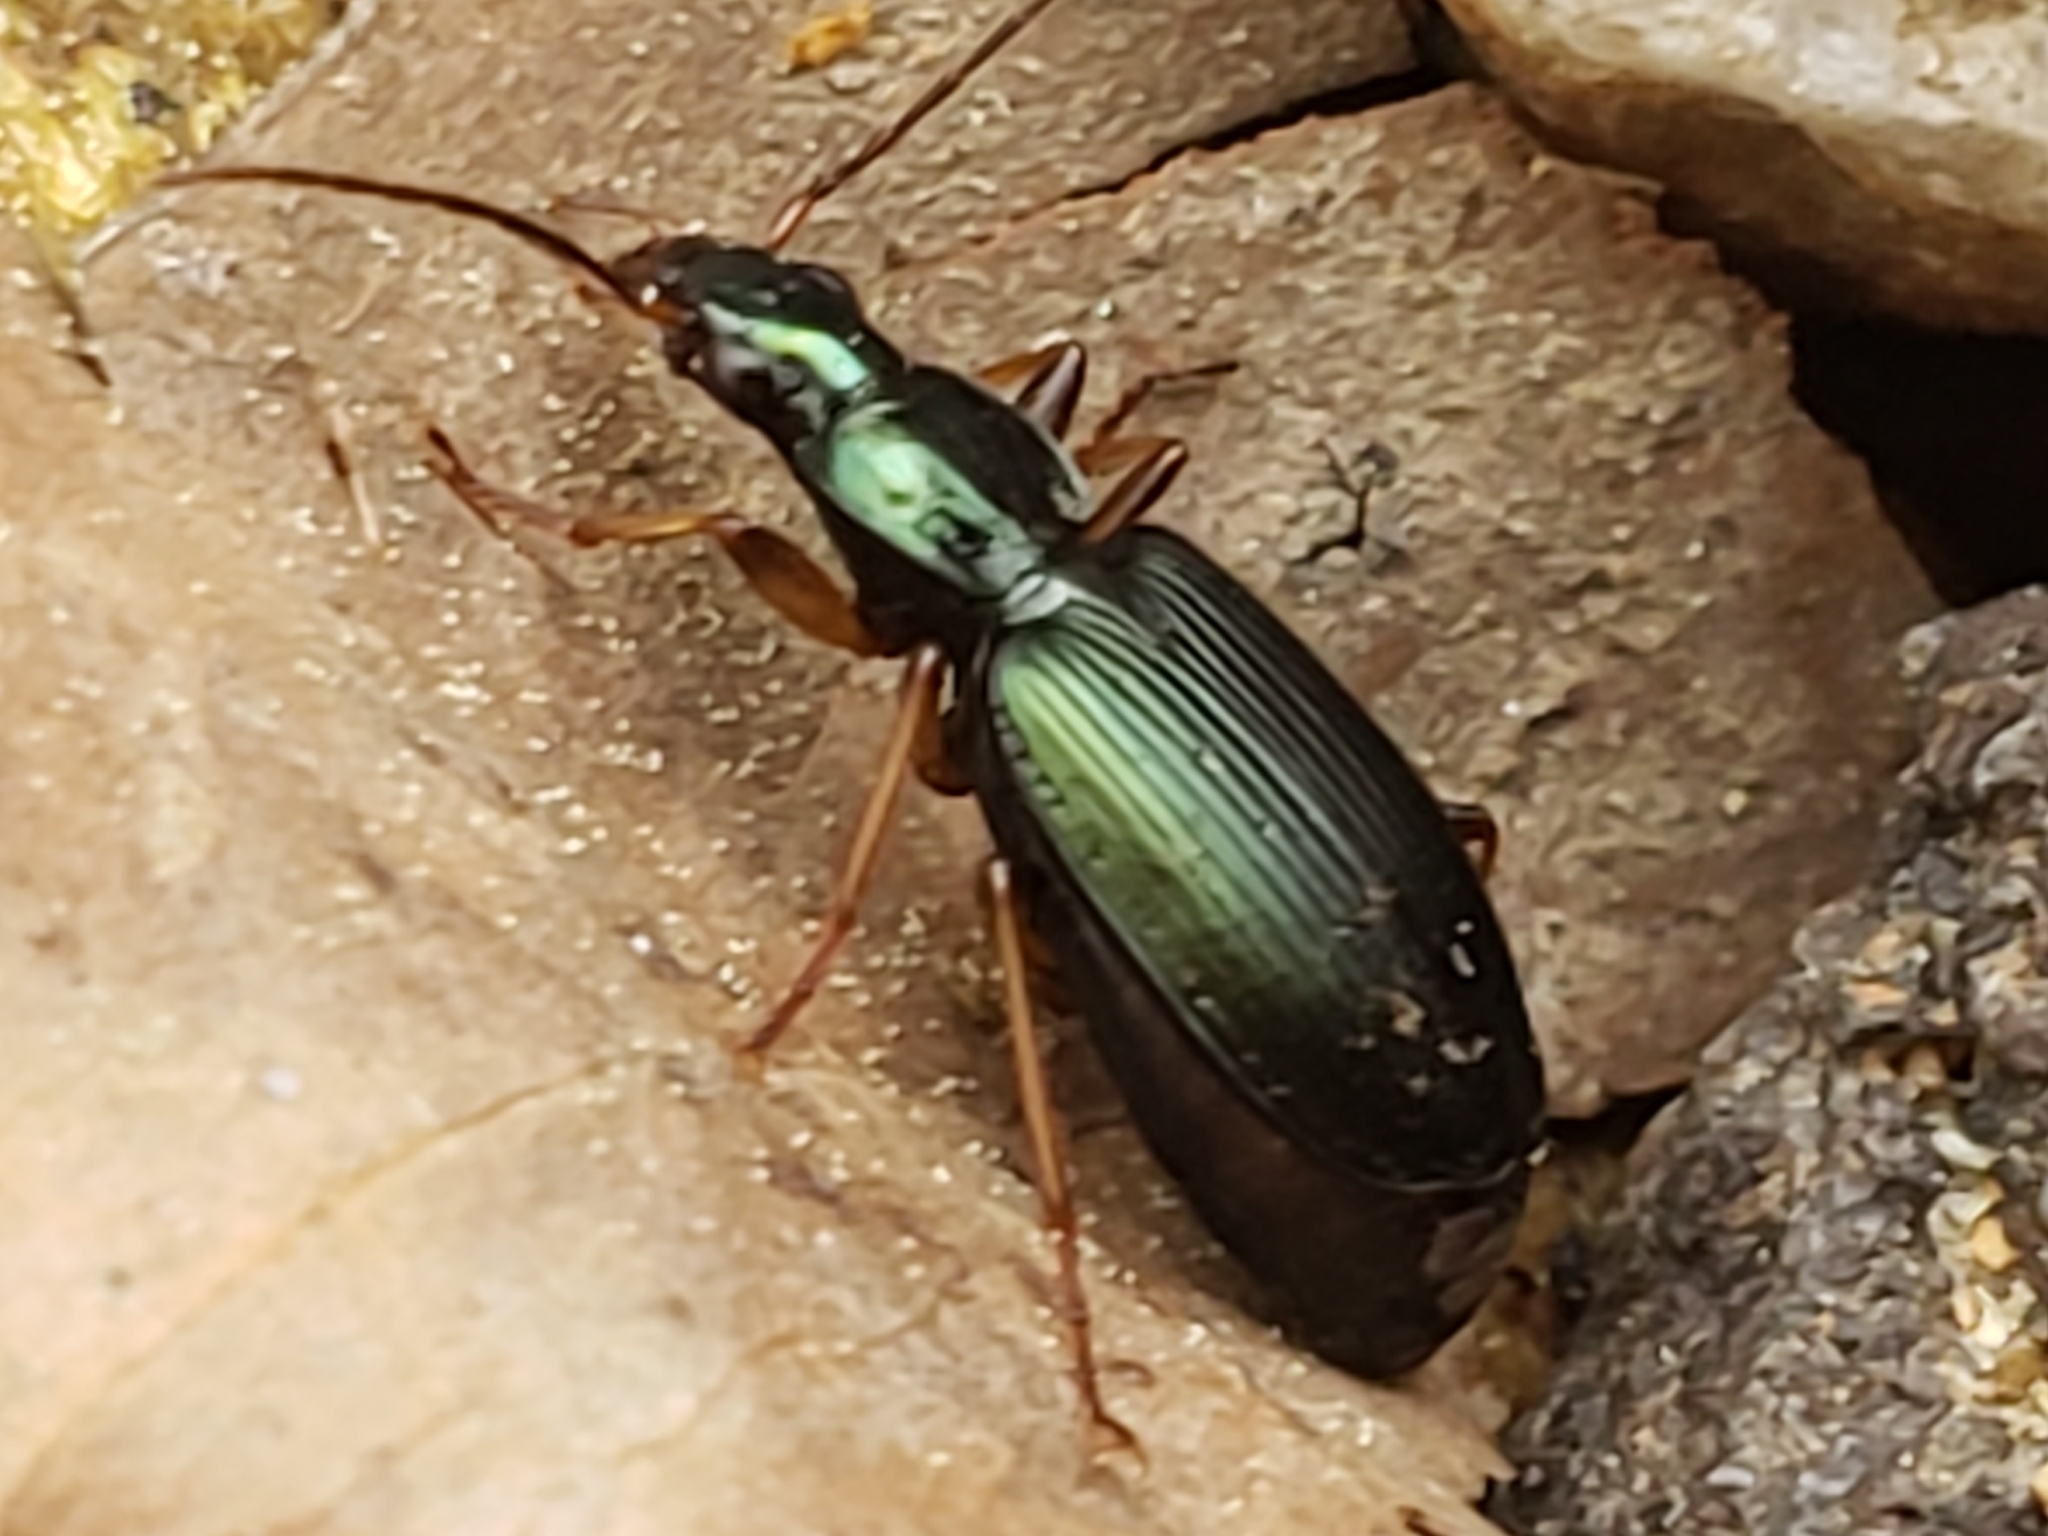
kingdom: Animalia
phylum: Arthropoda
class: Insecta
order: Coleoptera
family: Carabidae
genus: Agonum
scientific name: Agonum extensicolle
